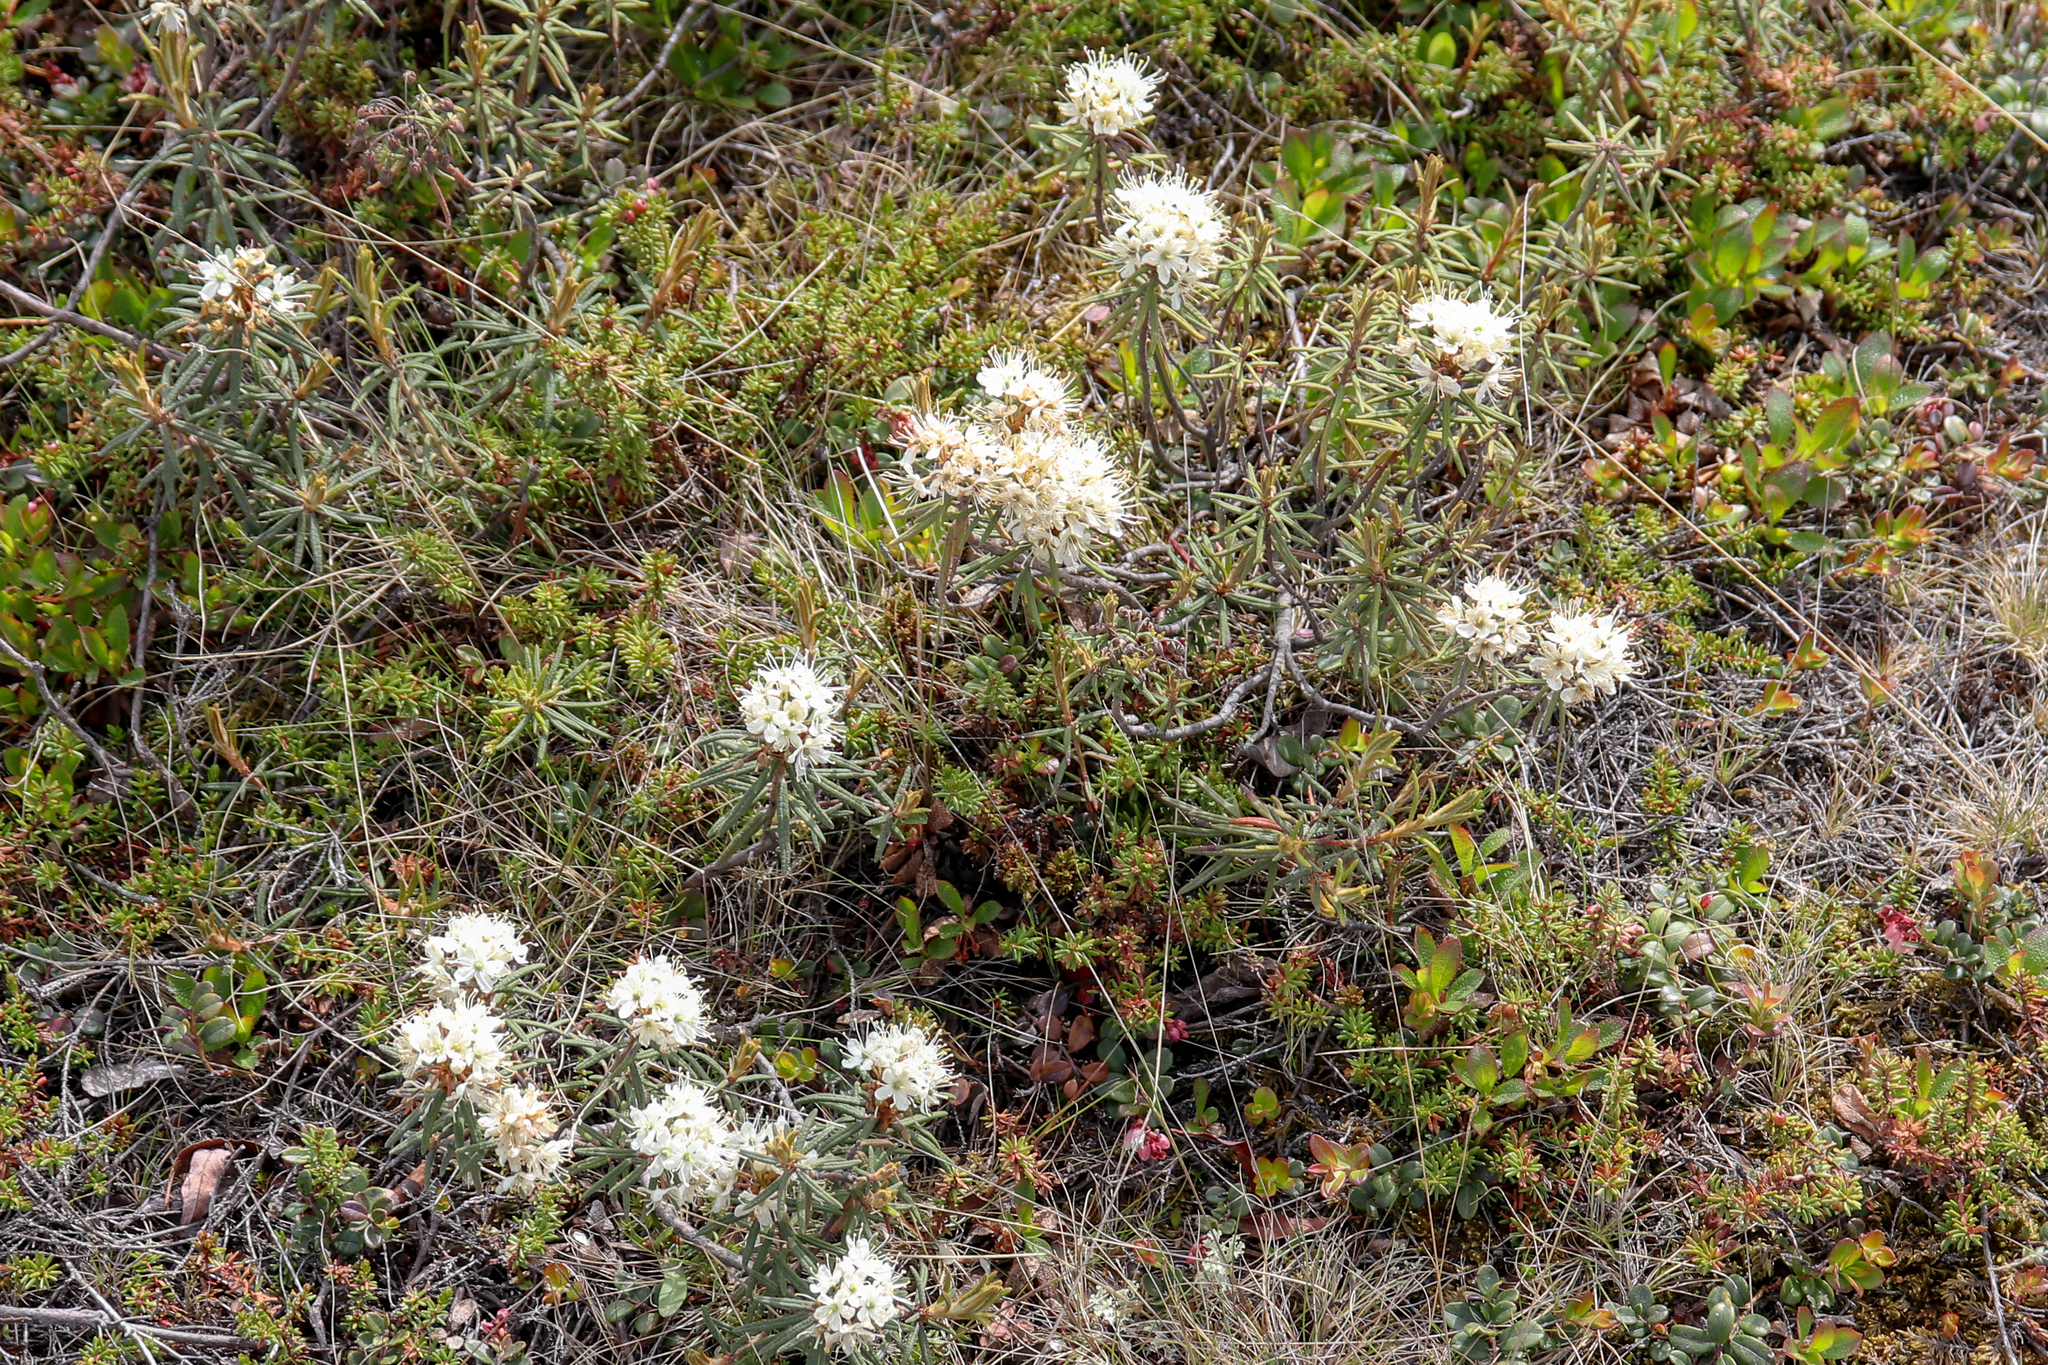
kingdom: Plantae
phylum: Tracheophyta
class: Magnoliopsida
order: Ericales
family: Ericaceae
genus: Rhododendron
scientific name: Rhododendron tomentosum
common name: Marsh labrador tea
